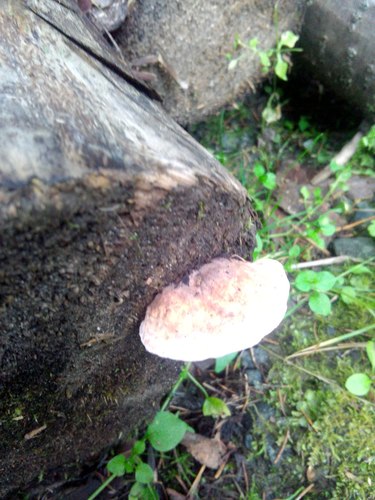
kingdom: Fungi
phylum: Basidiomycota
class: Agaricomycetes
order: Polyporales
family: Fomitopsidaceae
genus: Fomitopsis
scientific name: Fomitopsis pinicola
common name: Red-belted bracket
